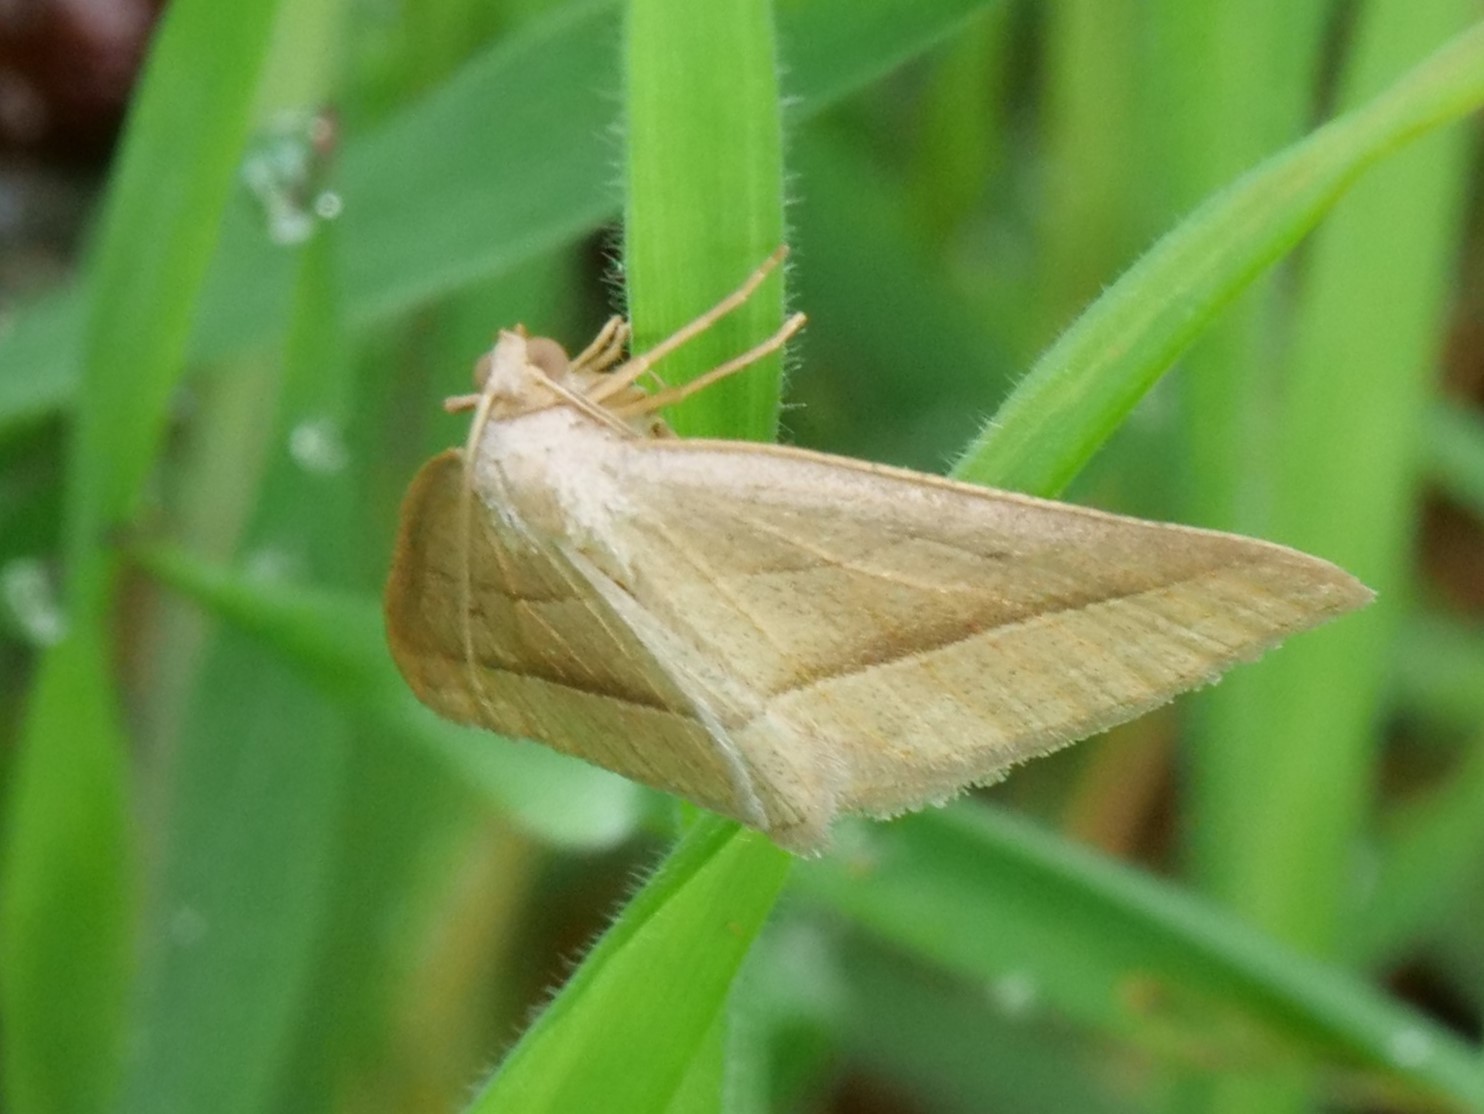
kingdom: Animalia
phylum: Arthropoda
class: Insecta
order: Lepidoptera
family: Pterophoridae
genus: Pterophorus
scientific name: Pterophorus Petrophora chlorosata
